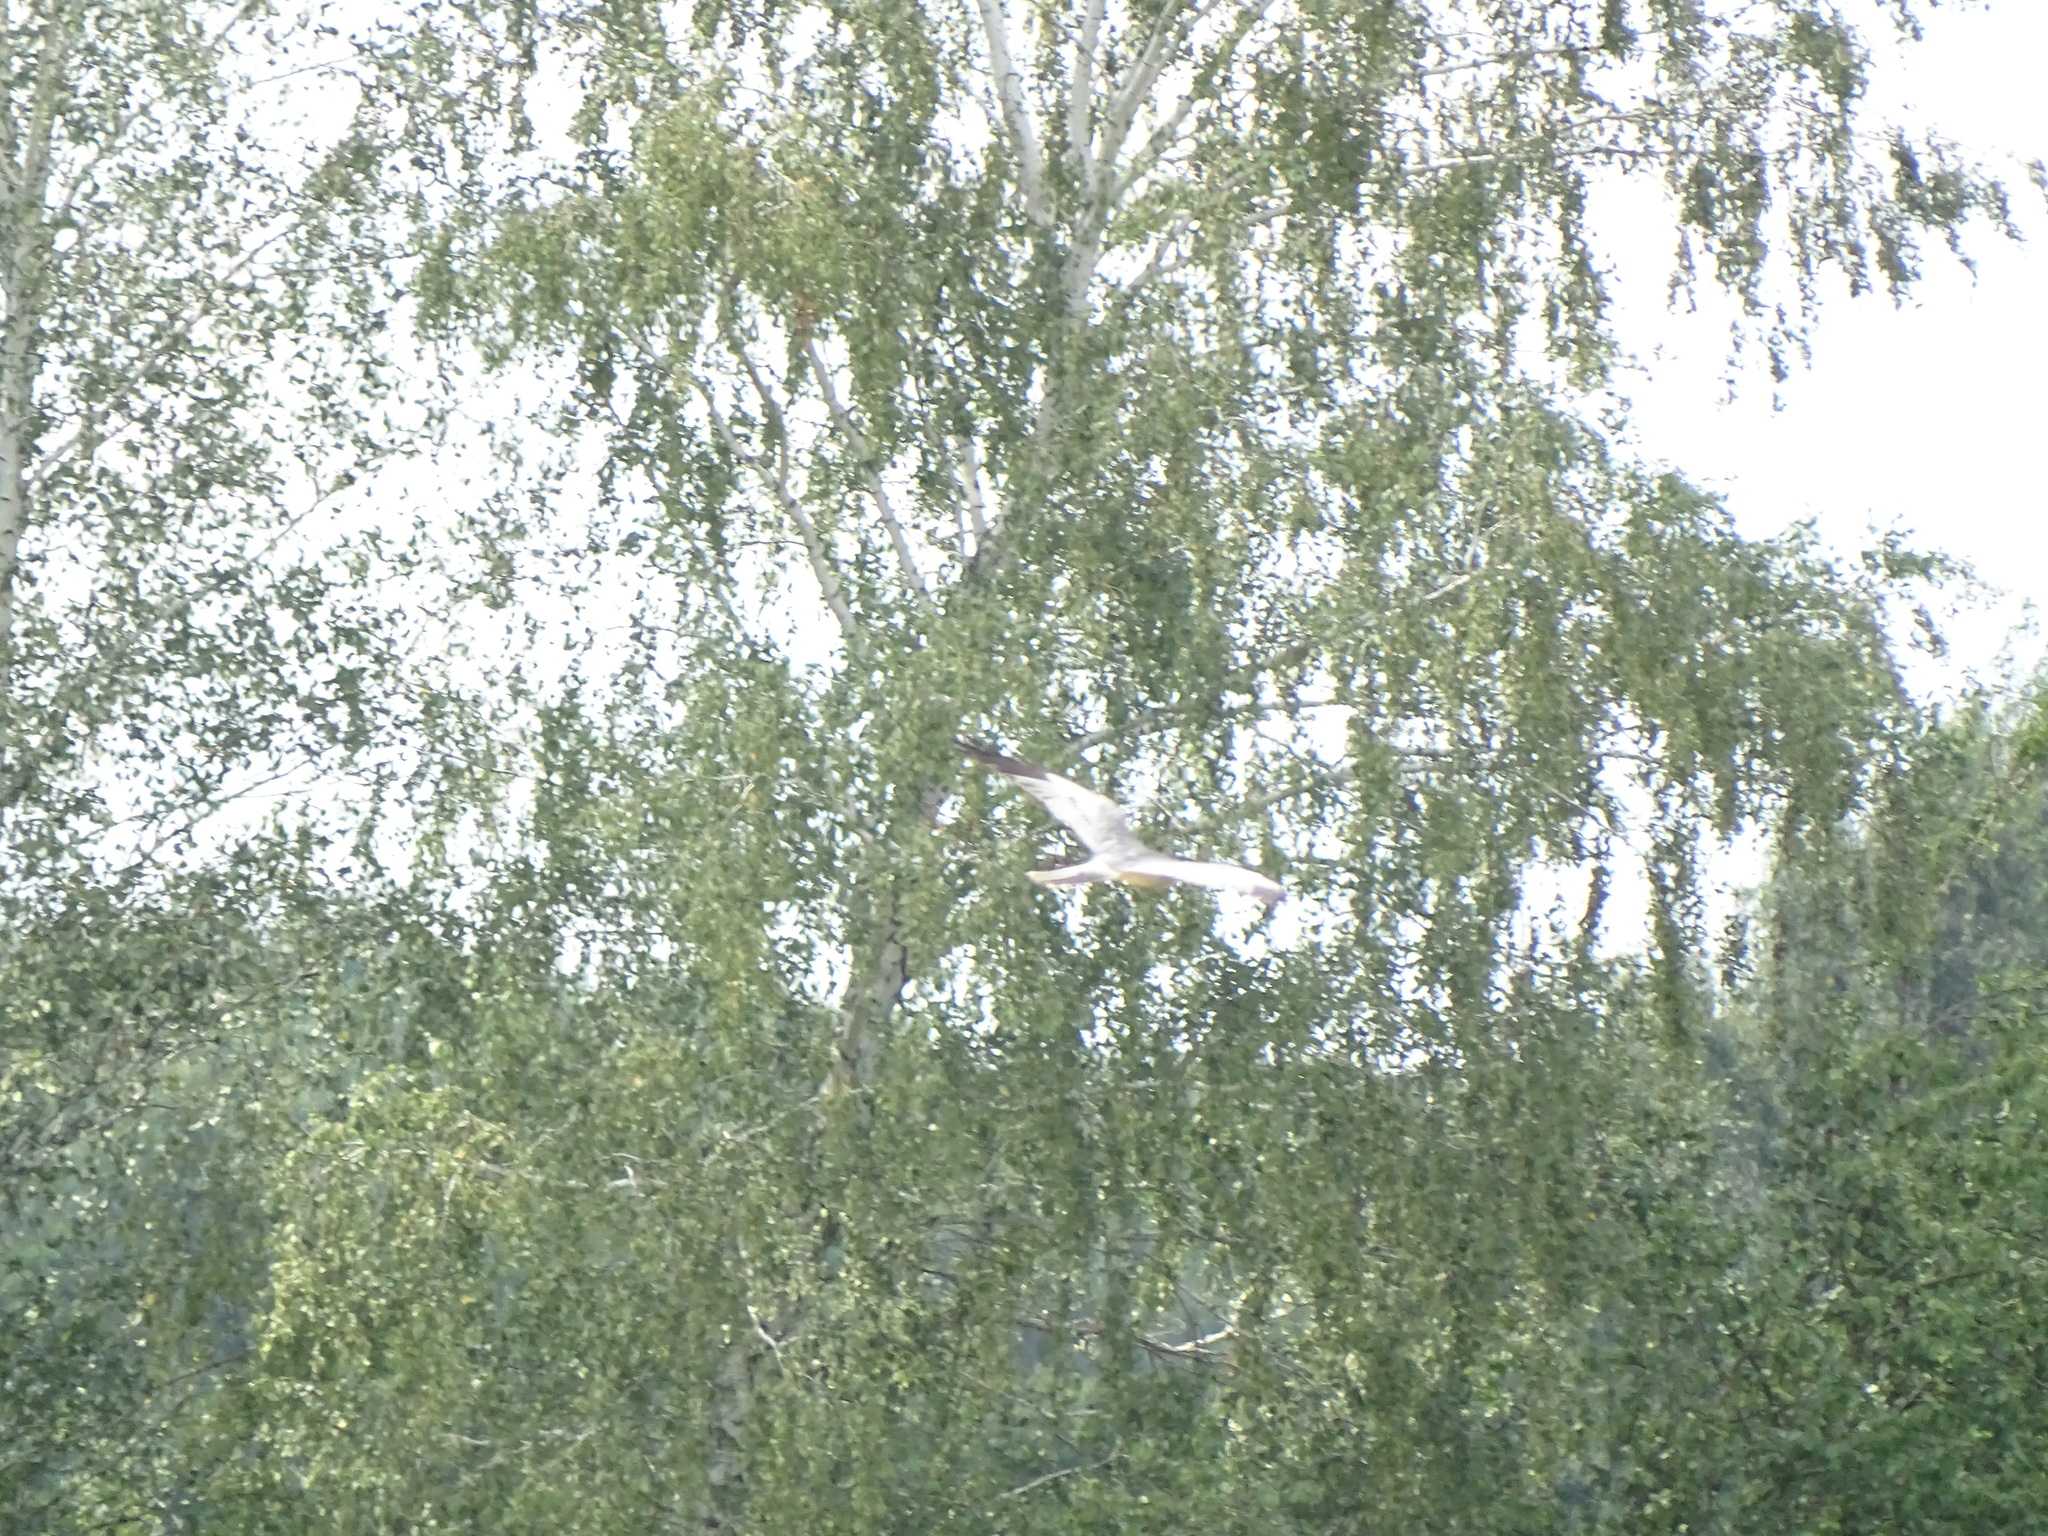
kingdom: Animalia
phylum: Chordata
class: Aves
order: Accipitriformes
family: Accipitridae
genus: Circus
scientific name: Circus pygargus
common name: Montagu's harrier
